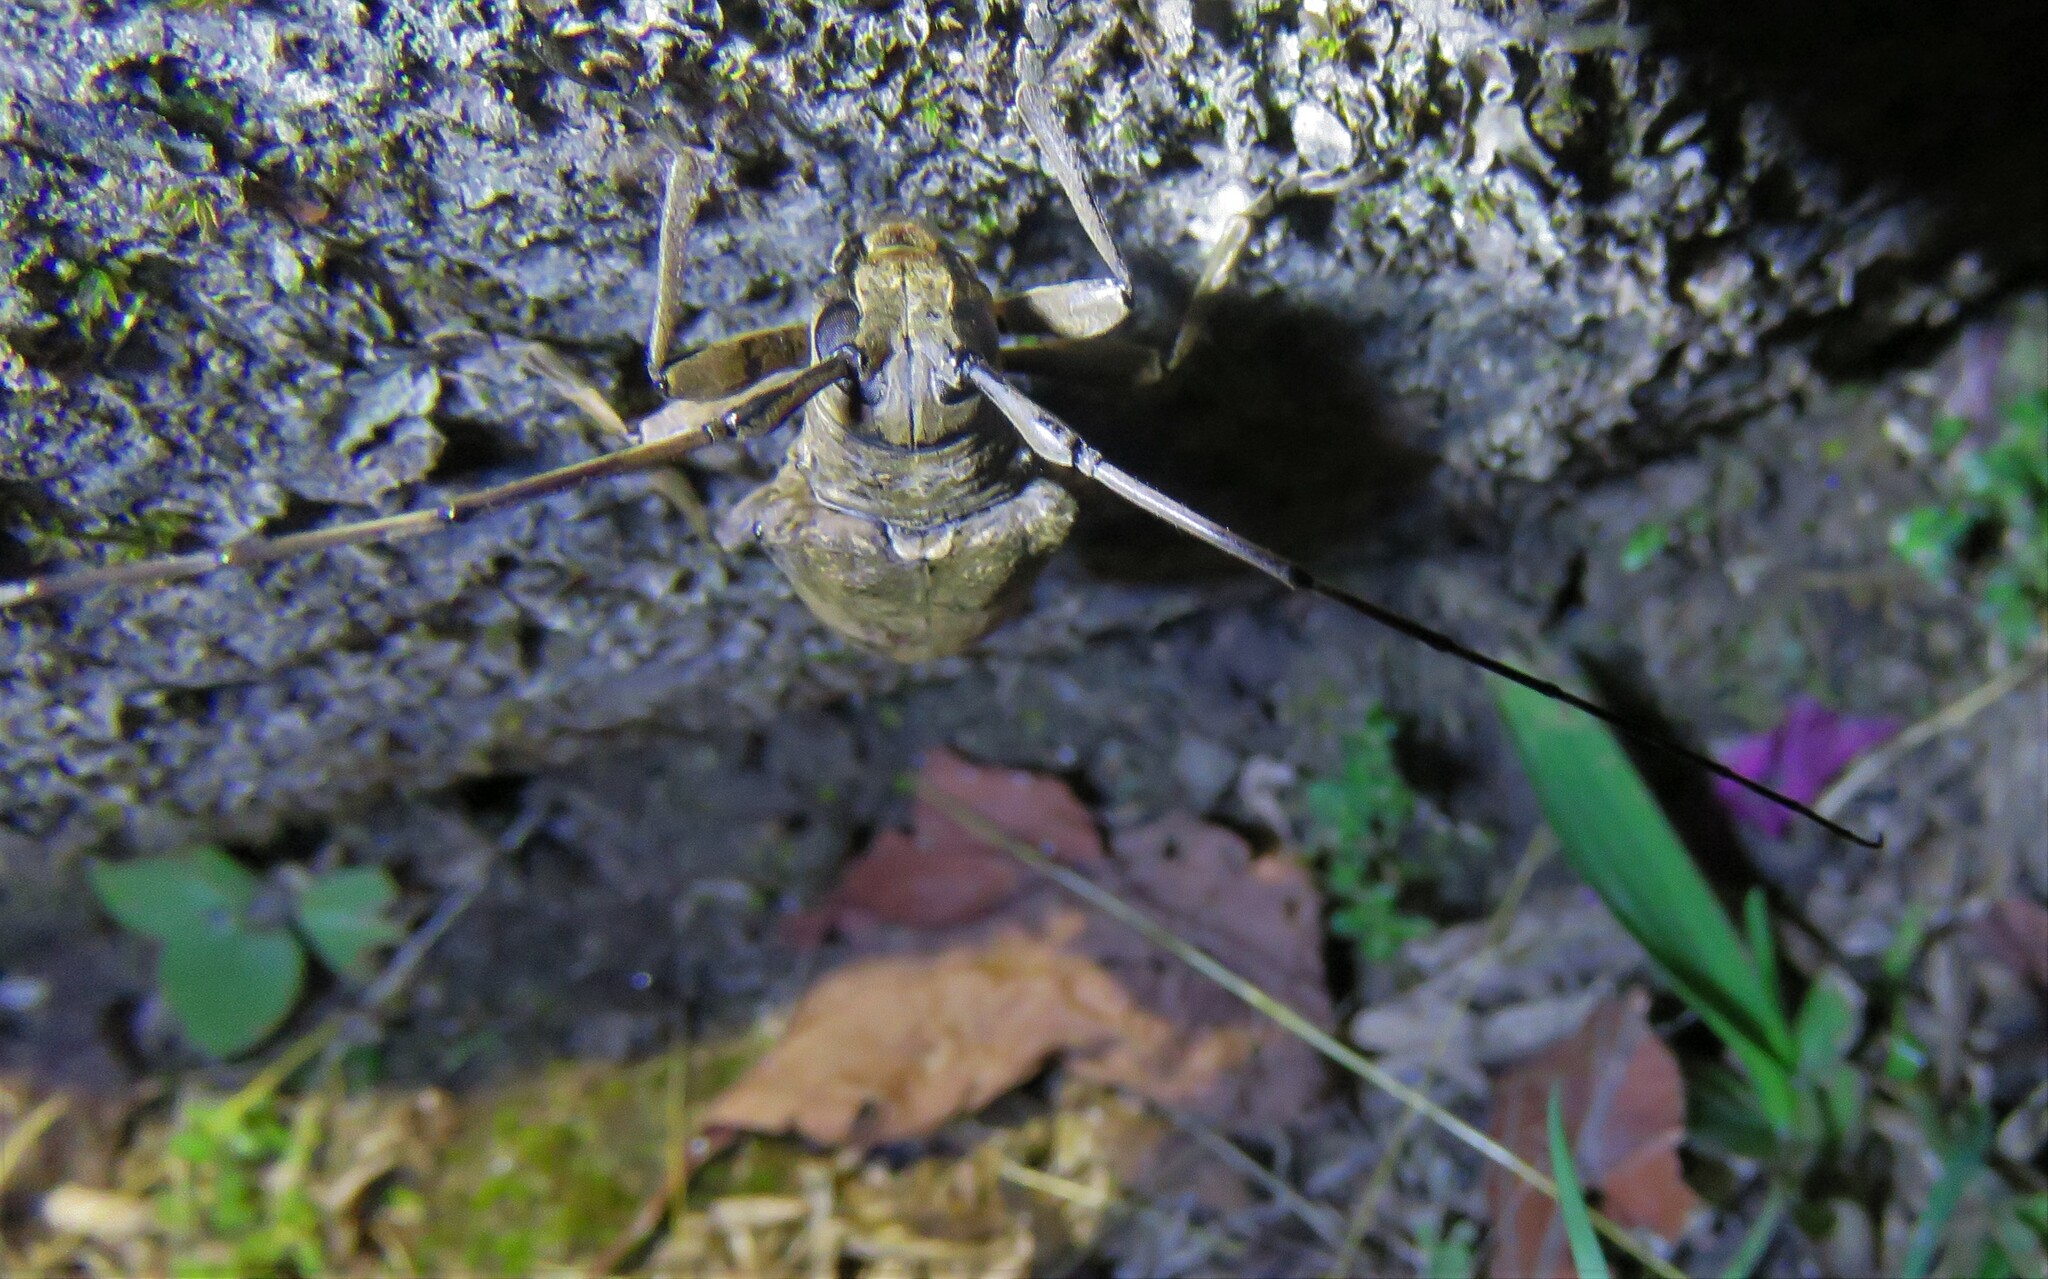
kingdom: Animalia
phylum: Arthropoda
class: Insecta
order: Coleoptera
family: Cerambycidae
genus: Tybalmia
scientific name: Tybalmia caeca
